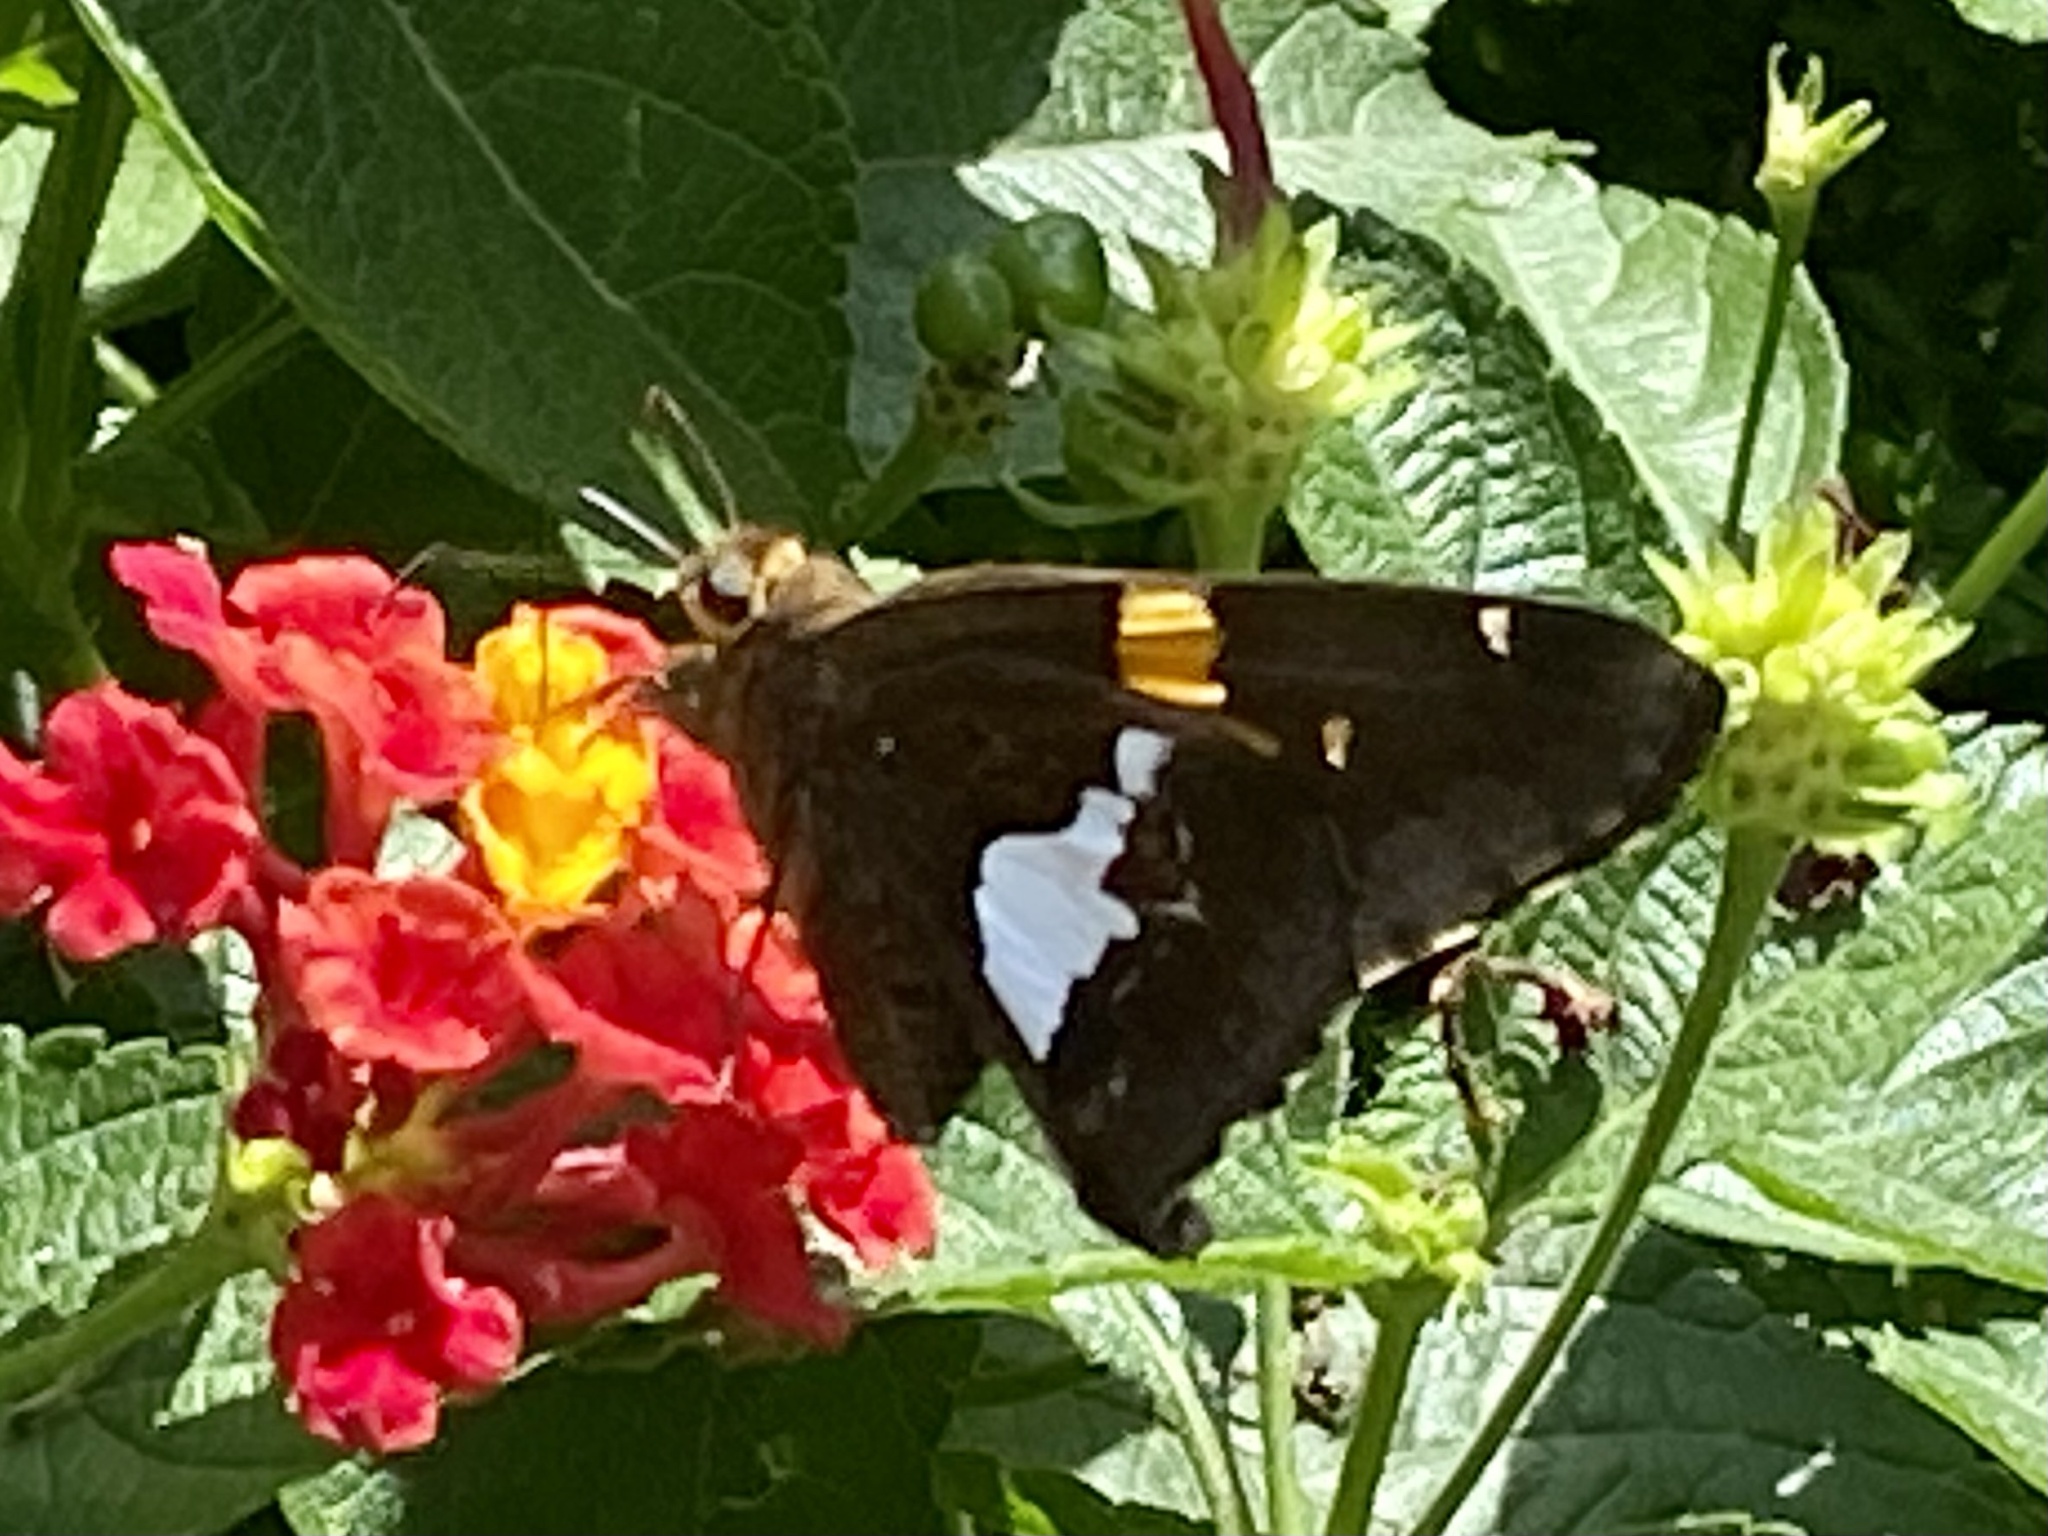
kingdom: Animalia
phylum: Arthropoda
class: Insecta
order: Lepidoptera
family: Hesperiidae
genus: Epargyreus
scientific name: Epargyreus clarus
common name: Silver-spotted skipper
